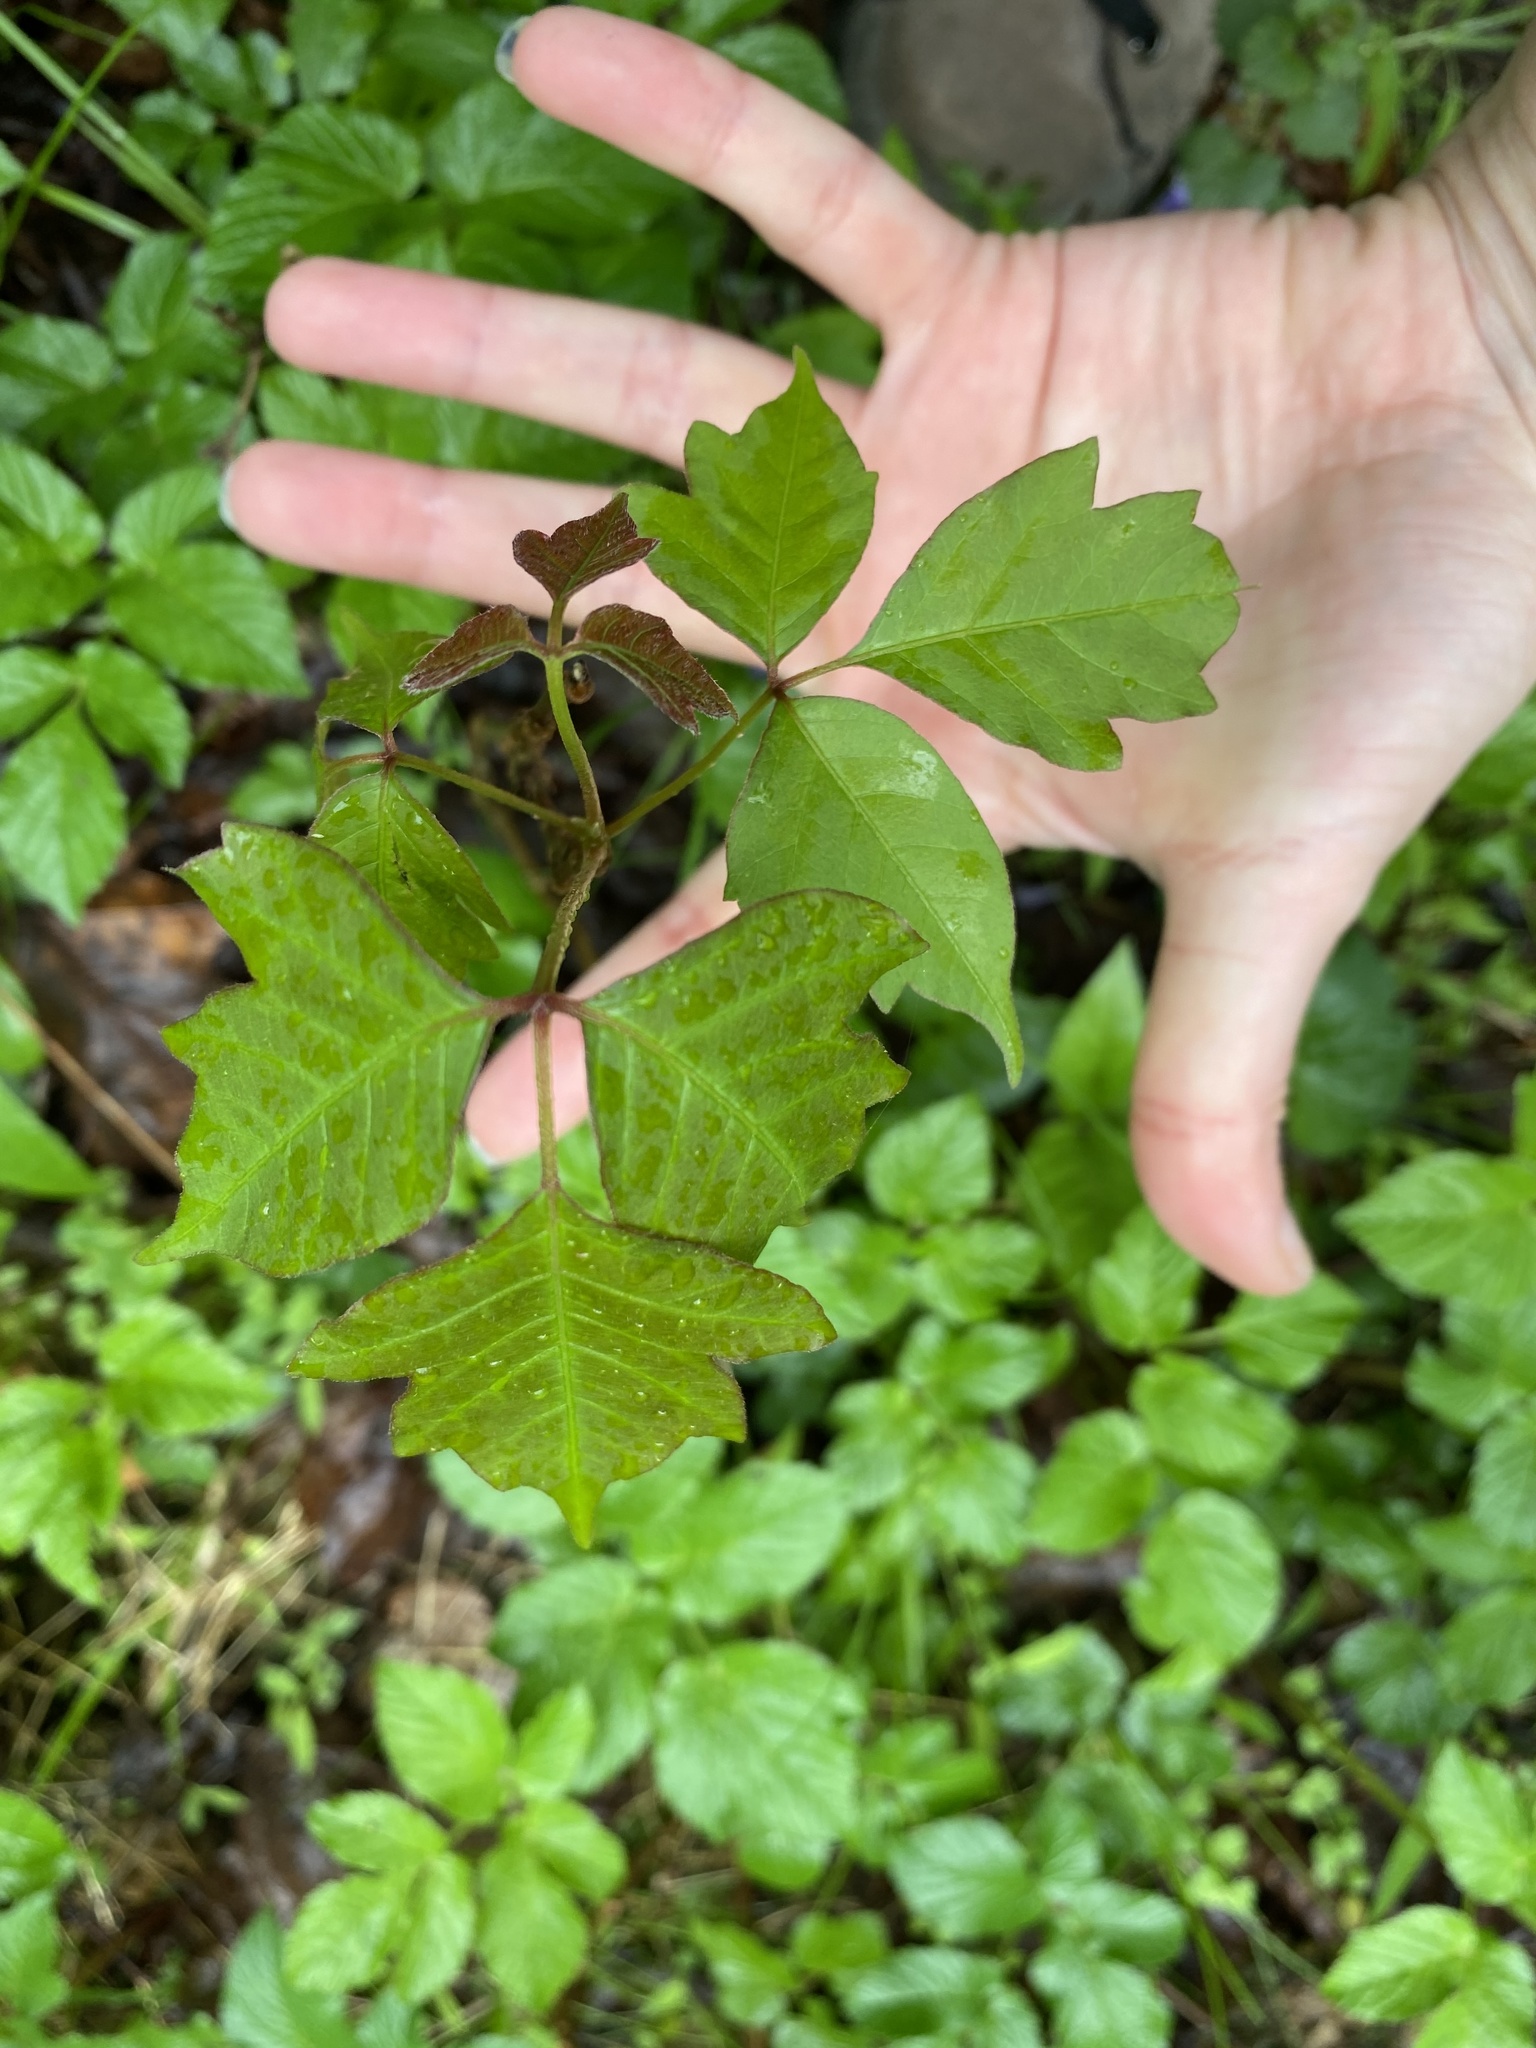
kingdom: Plantae
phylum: Tracheophyta
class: Magnoliopsida
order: Sapindales
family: Anacardiaceae
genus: Toxicodendron
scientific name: Toxicodendron radicans
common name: Poison ivy
